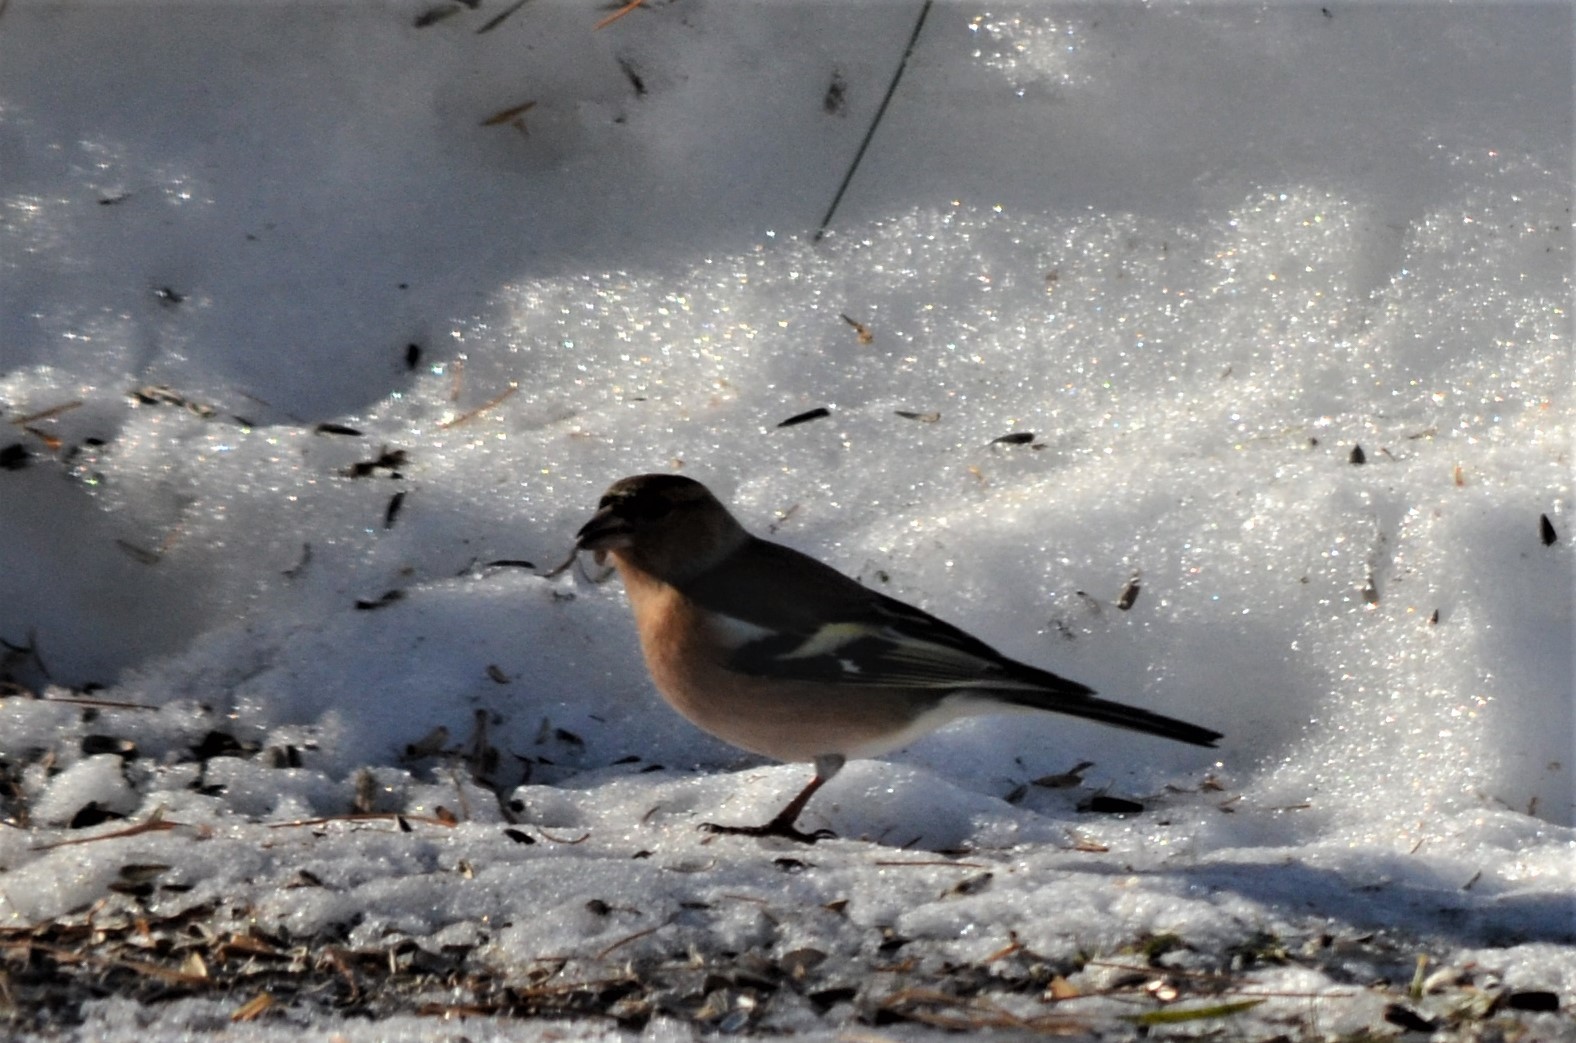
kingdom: Animalia
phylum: Chordata
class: Aves
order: Passeriformes
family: Fringillidae
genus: Fringilla
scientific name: Fringilla coelebs
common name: Common chaffinch
